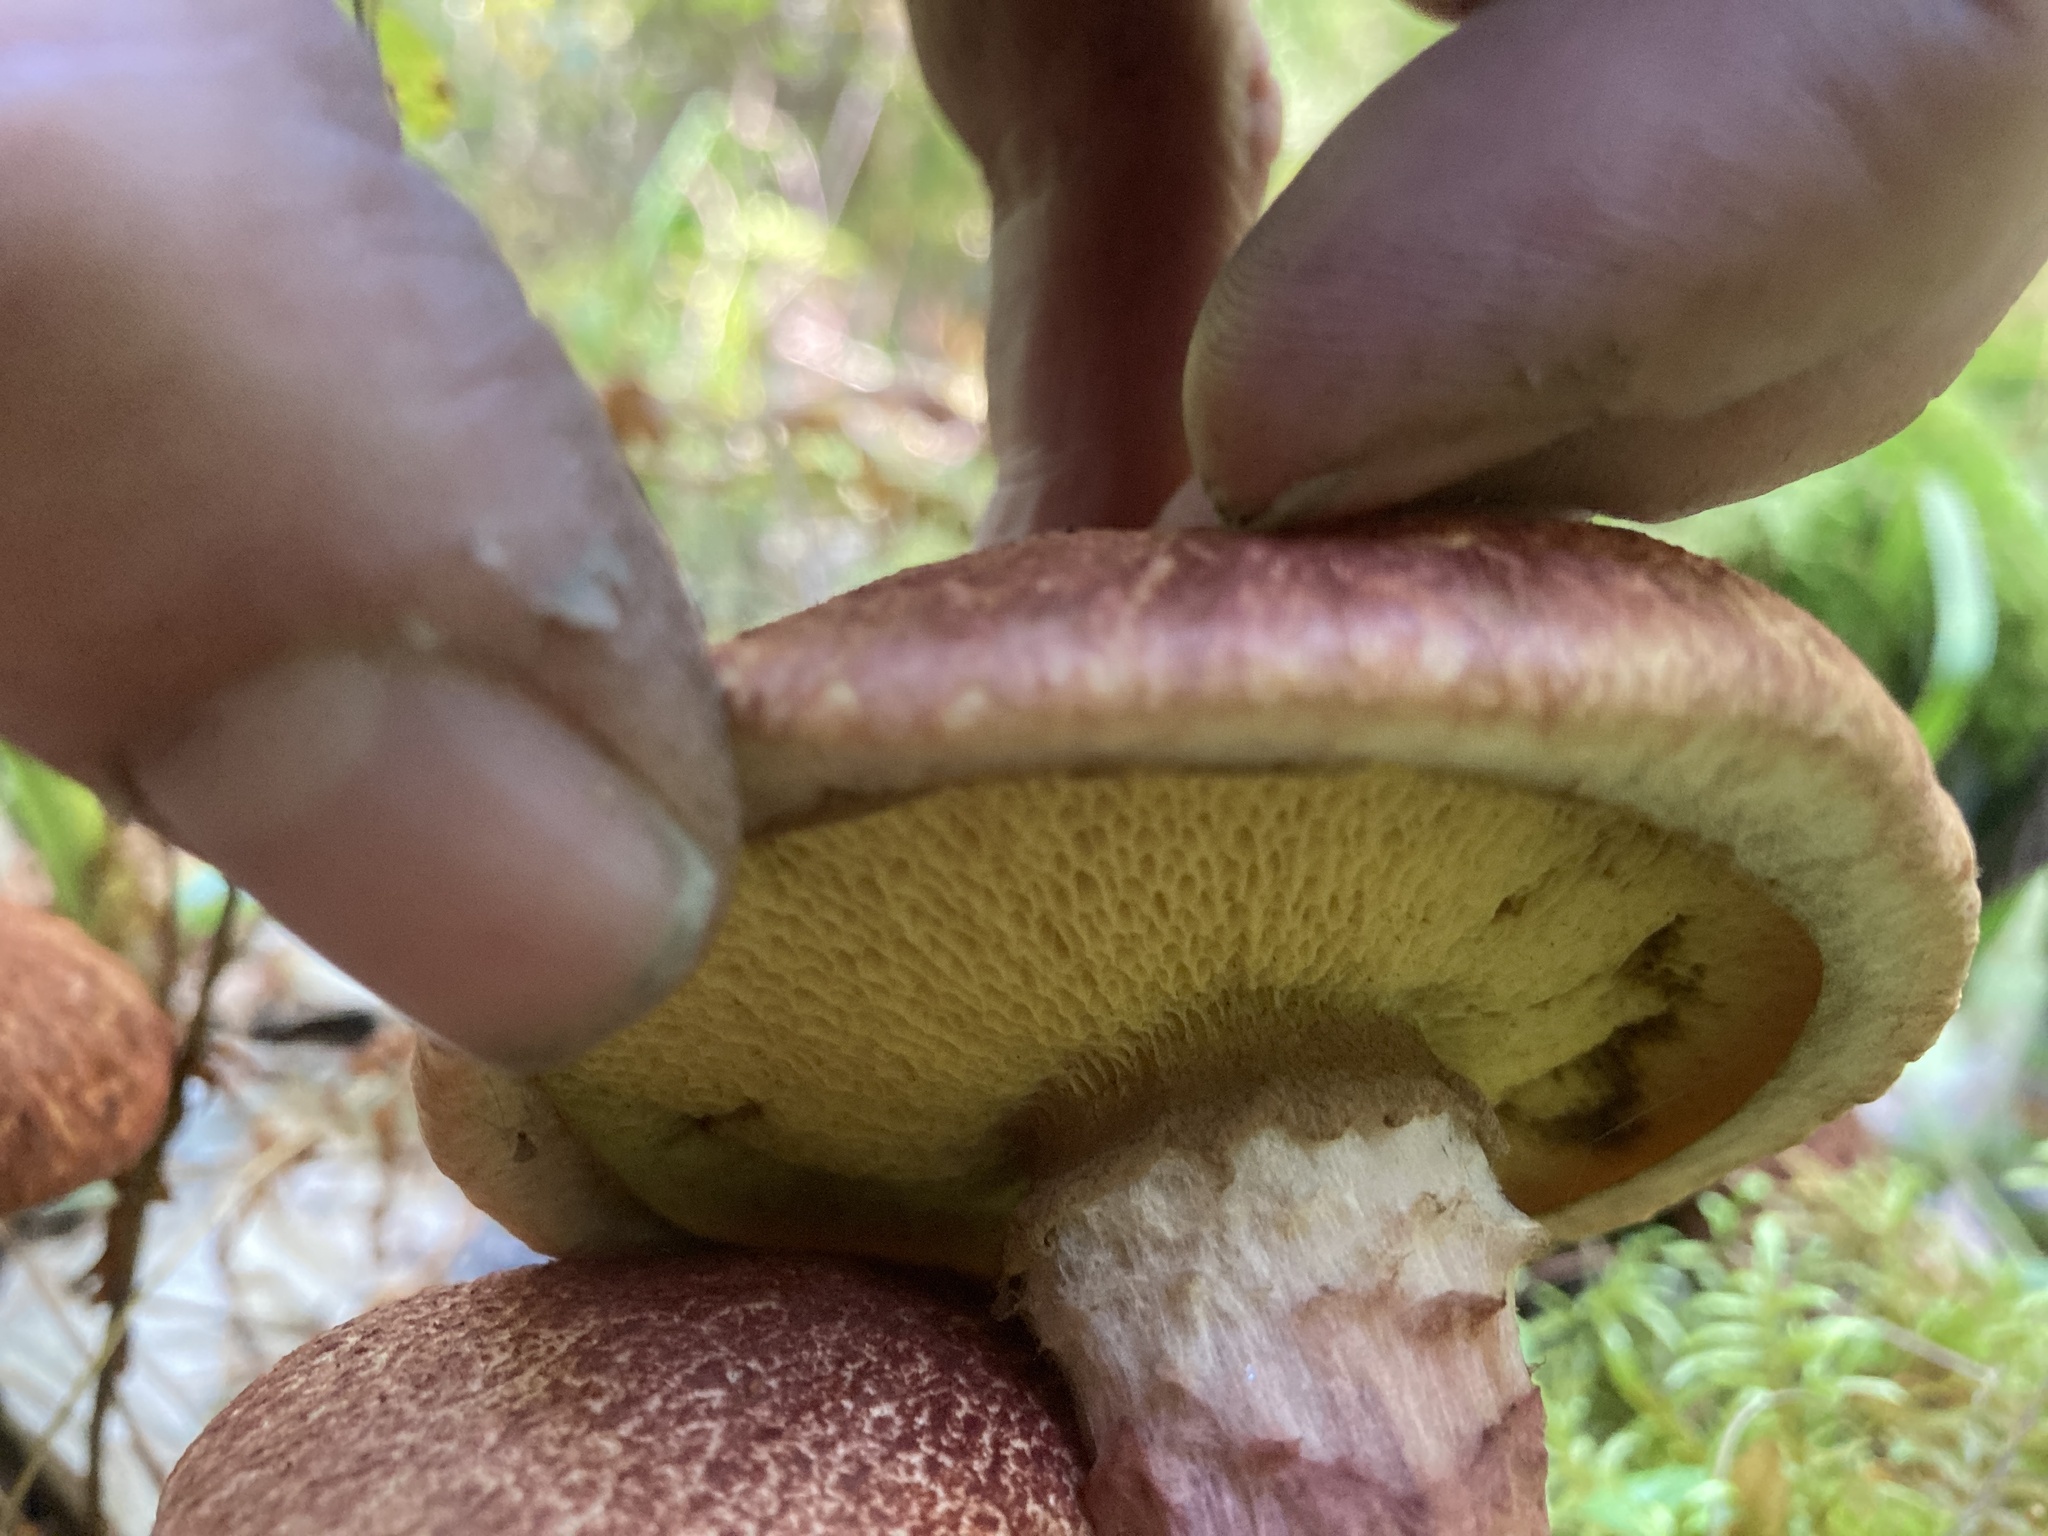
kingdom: Fungi
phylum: Basidiomycota
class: Agaricomycetes
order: Boletales
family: Suillaceae
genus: Suillus
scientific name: Suillus spraguei
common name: Painted suillus
